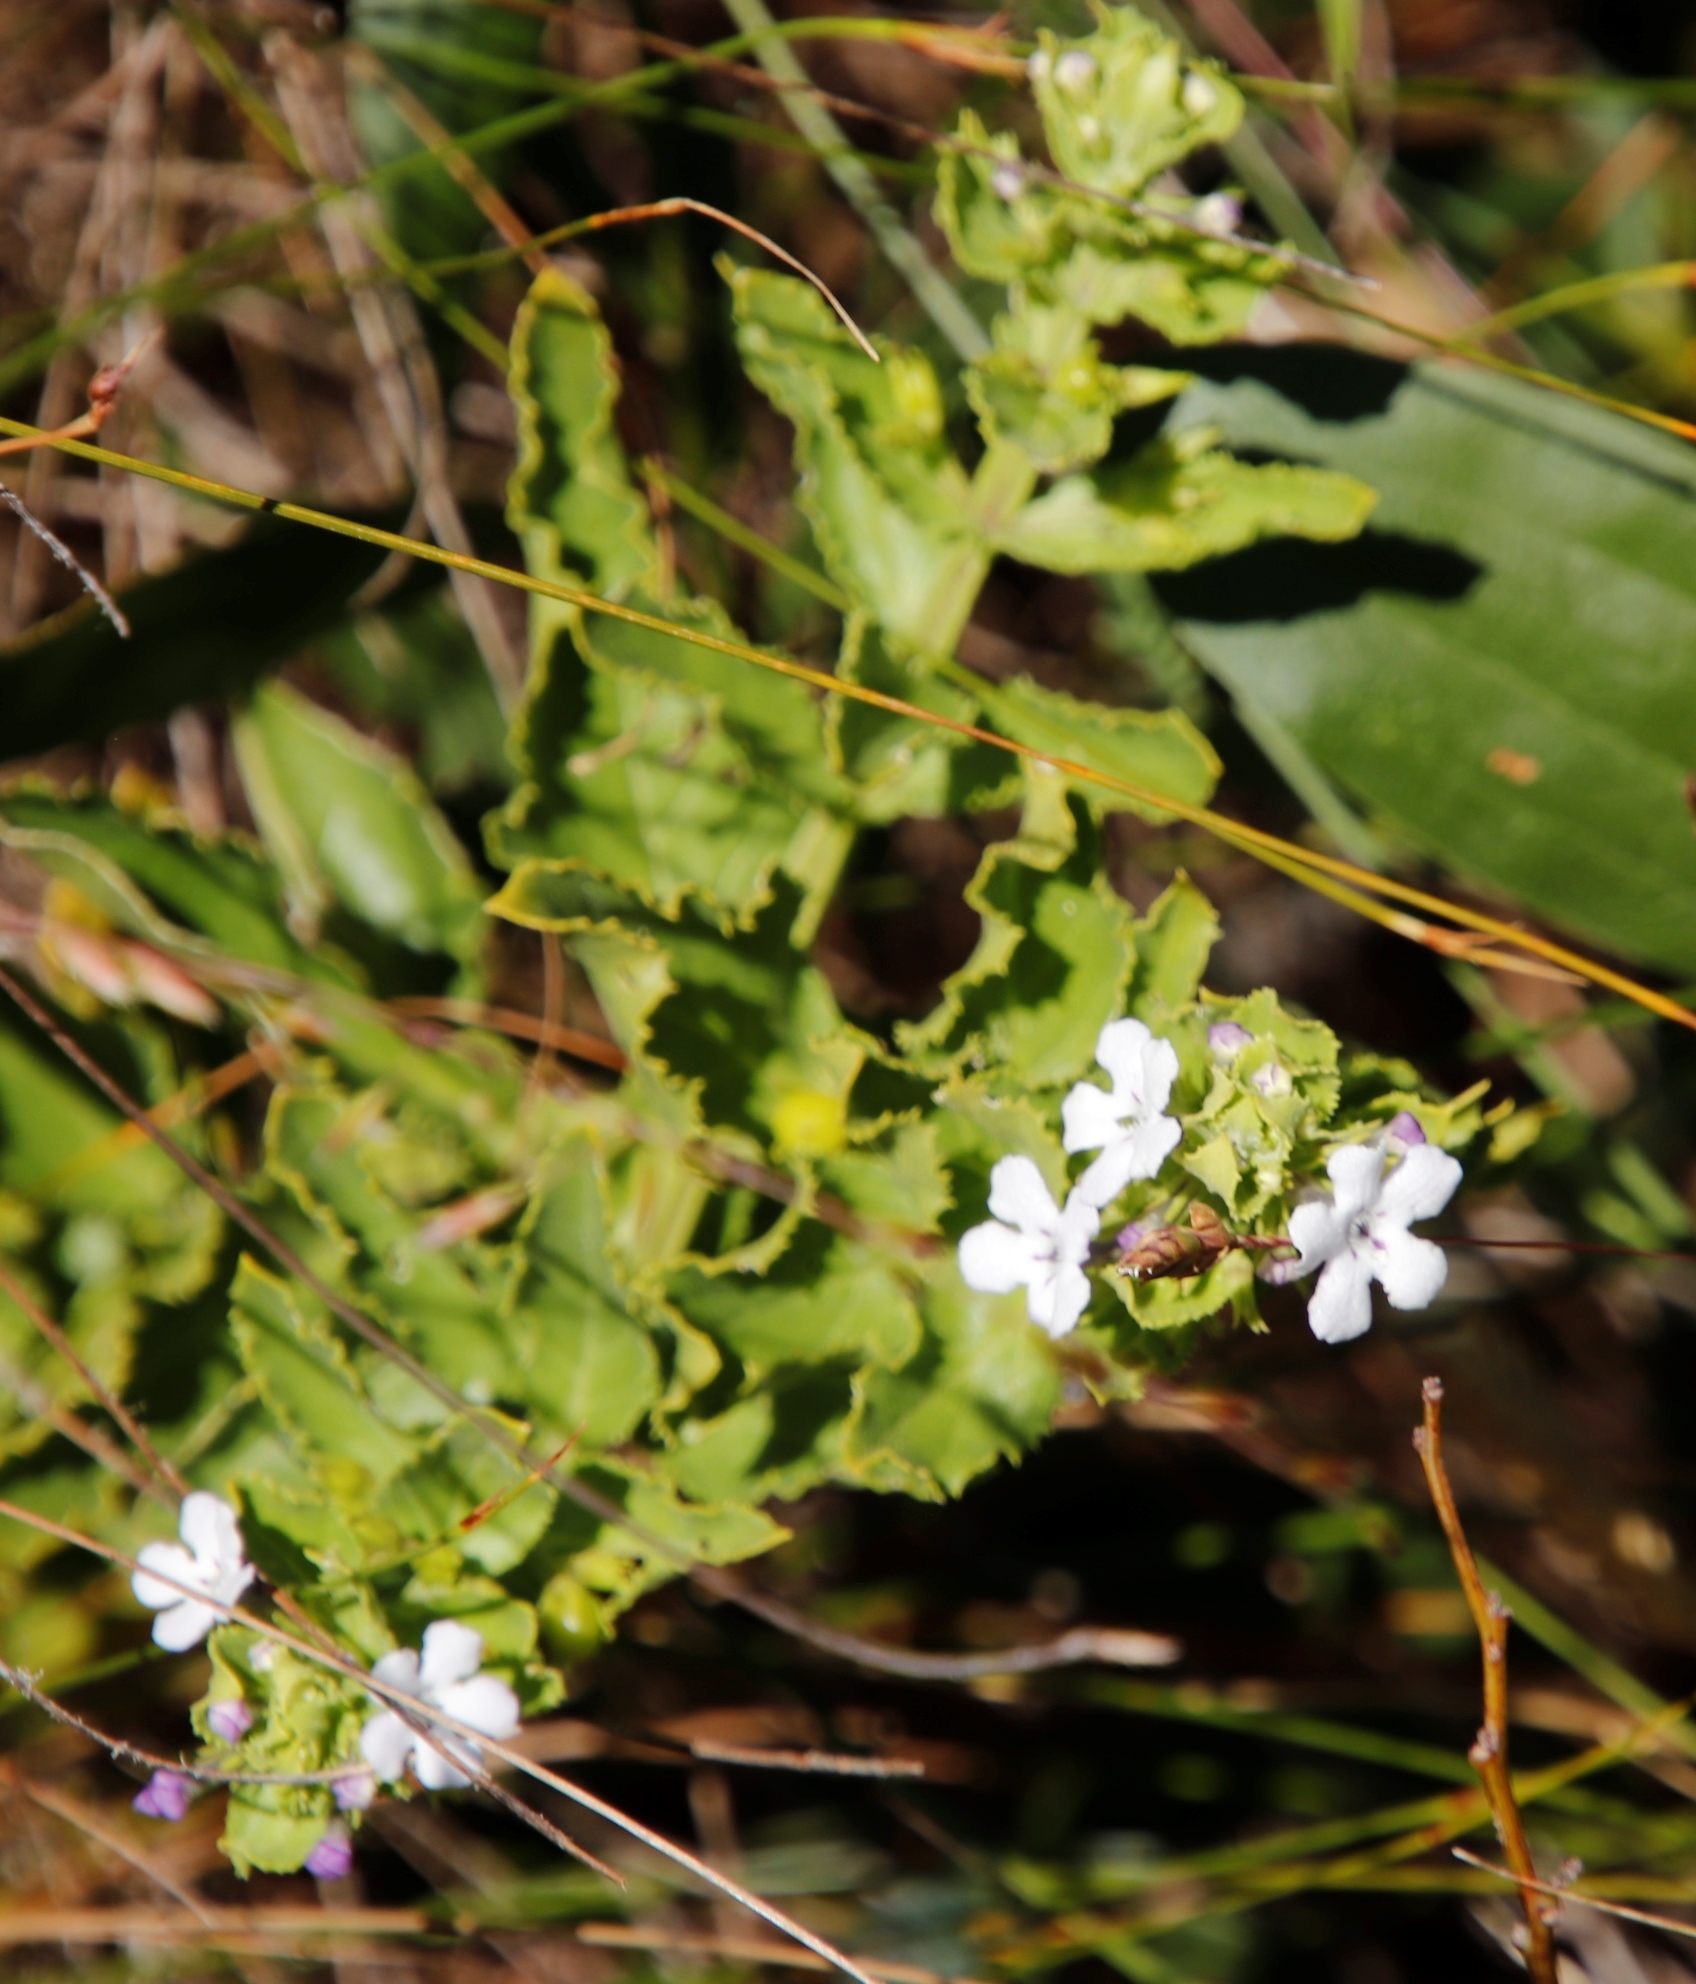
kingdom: Plantae
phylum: Tracheophyta
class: Magnoliopsida
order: Lamiales
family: Scrophulariaceae
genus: Oftia
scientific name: Oftia africana
